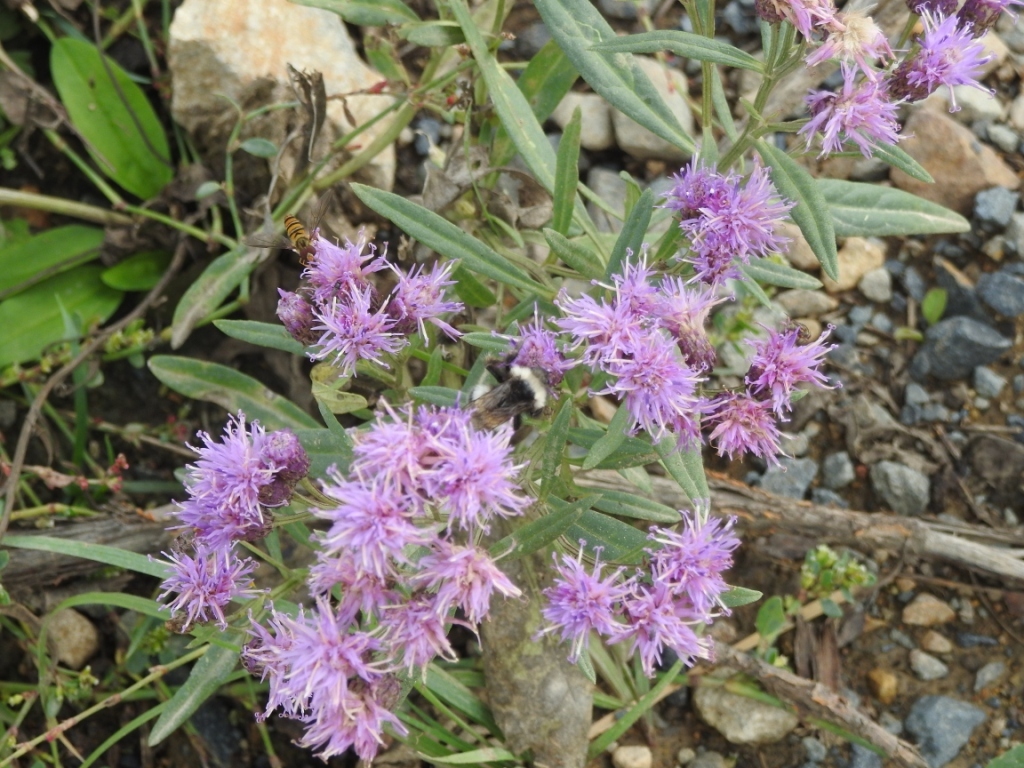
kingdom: Plantae
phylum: Tracheophyta
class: Magnoliopsida
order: Asterales
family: Asteraceae
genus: Saussurea
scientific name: Saussurea amara
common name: Alberta sawwort
